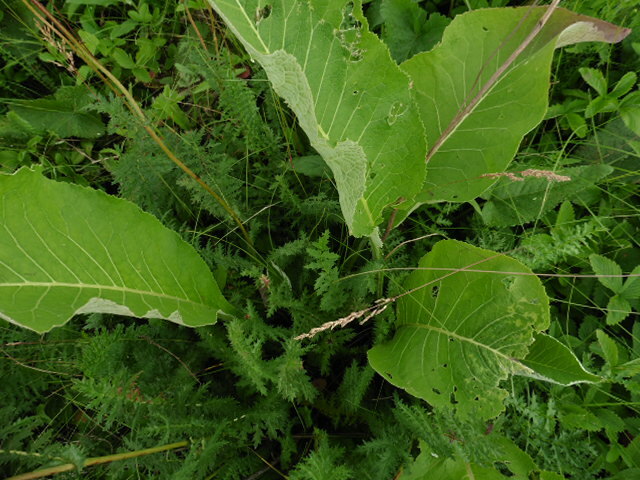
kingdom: Plantae
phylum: Tracheophyta
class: Magnoliopsida
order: Asterales
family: Asteraceae
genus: Inula
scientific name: Inula helenium
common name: Elecampane
